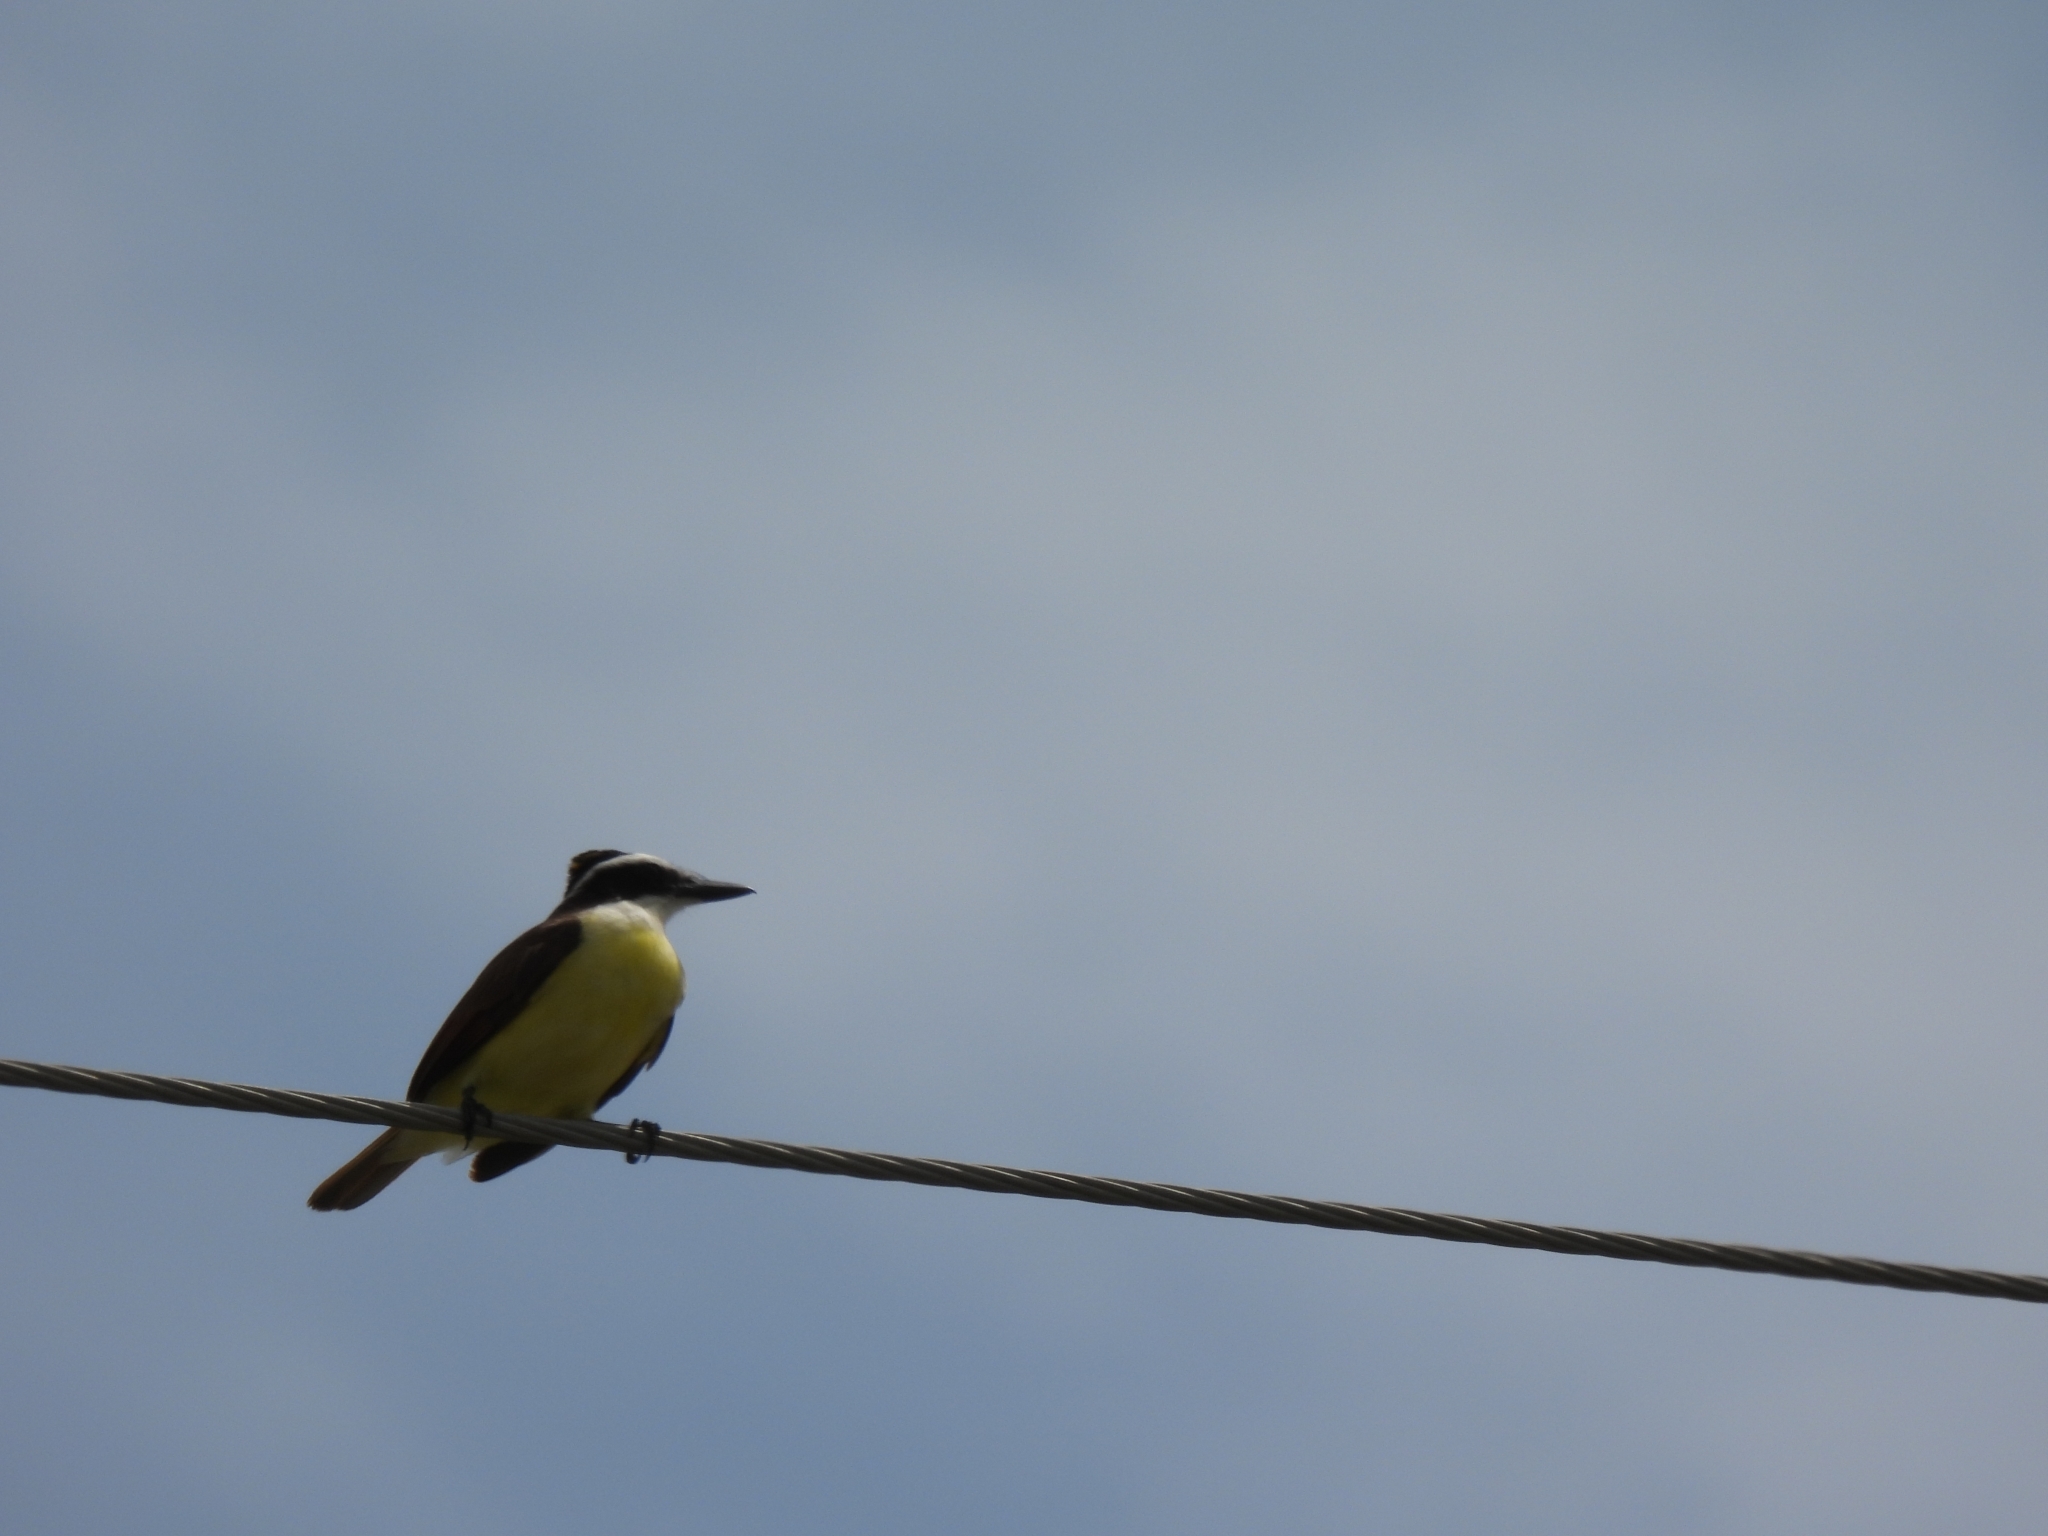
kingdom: Animalia
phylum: Chordata
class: Aves
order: Passeriformes
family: Tyrannidae
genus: Pitangus
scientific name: Pitangus sulphuratus
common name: Great kiskadee
